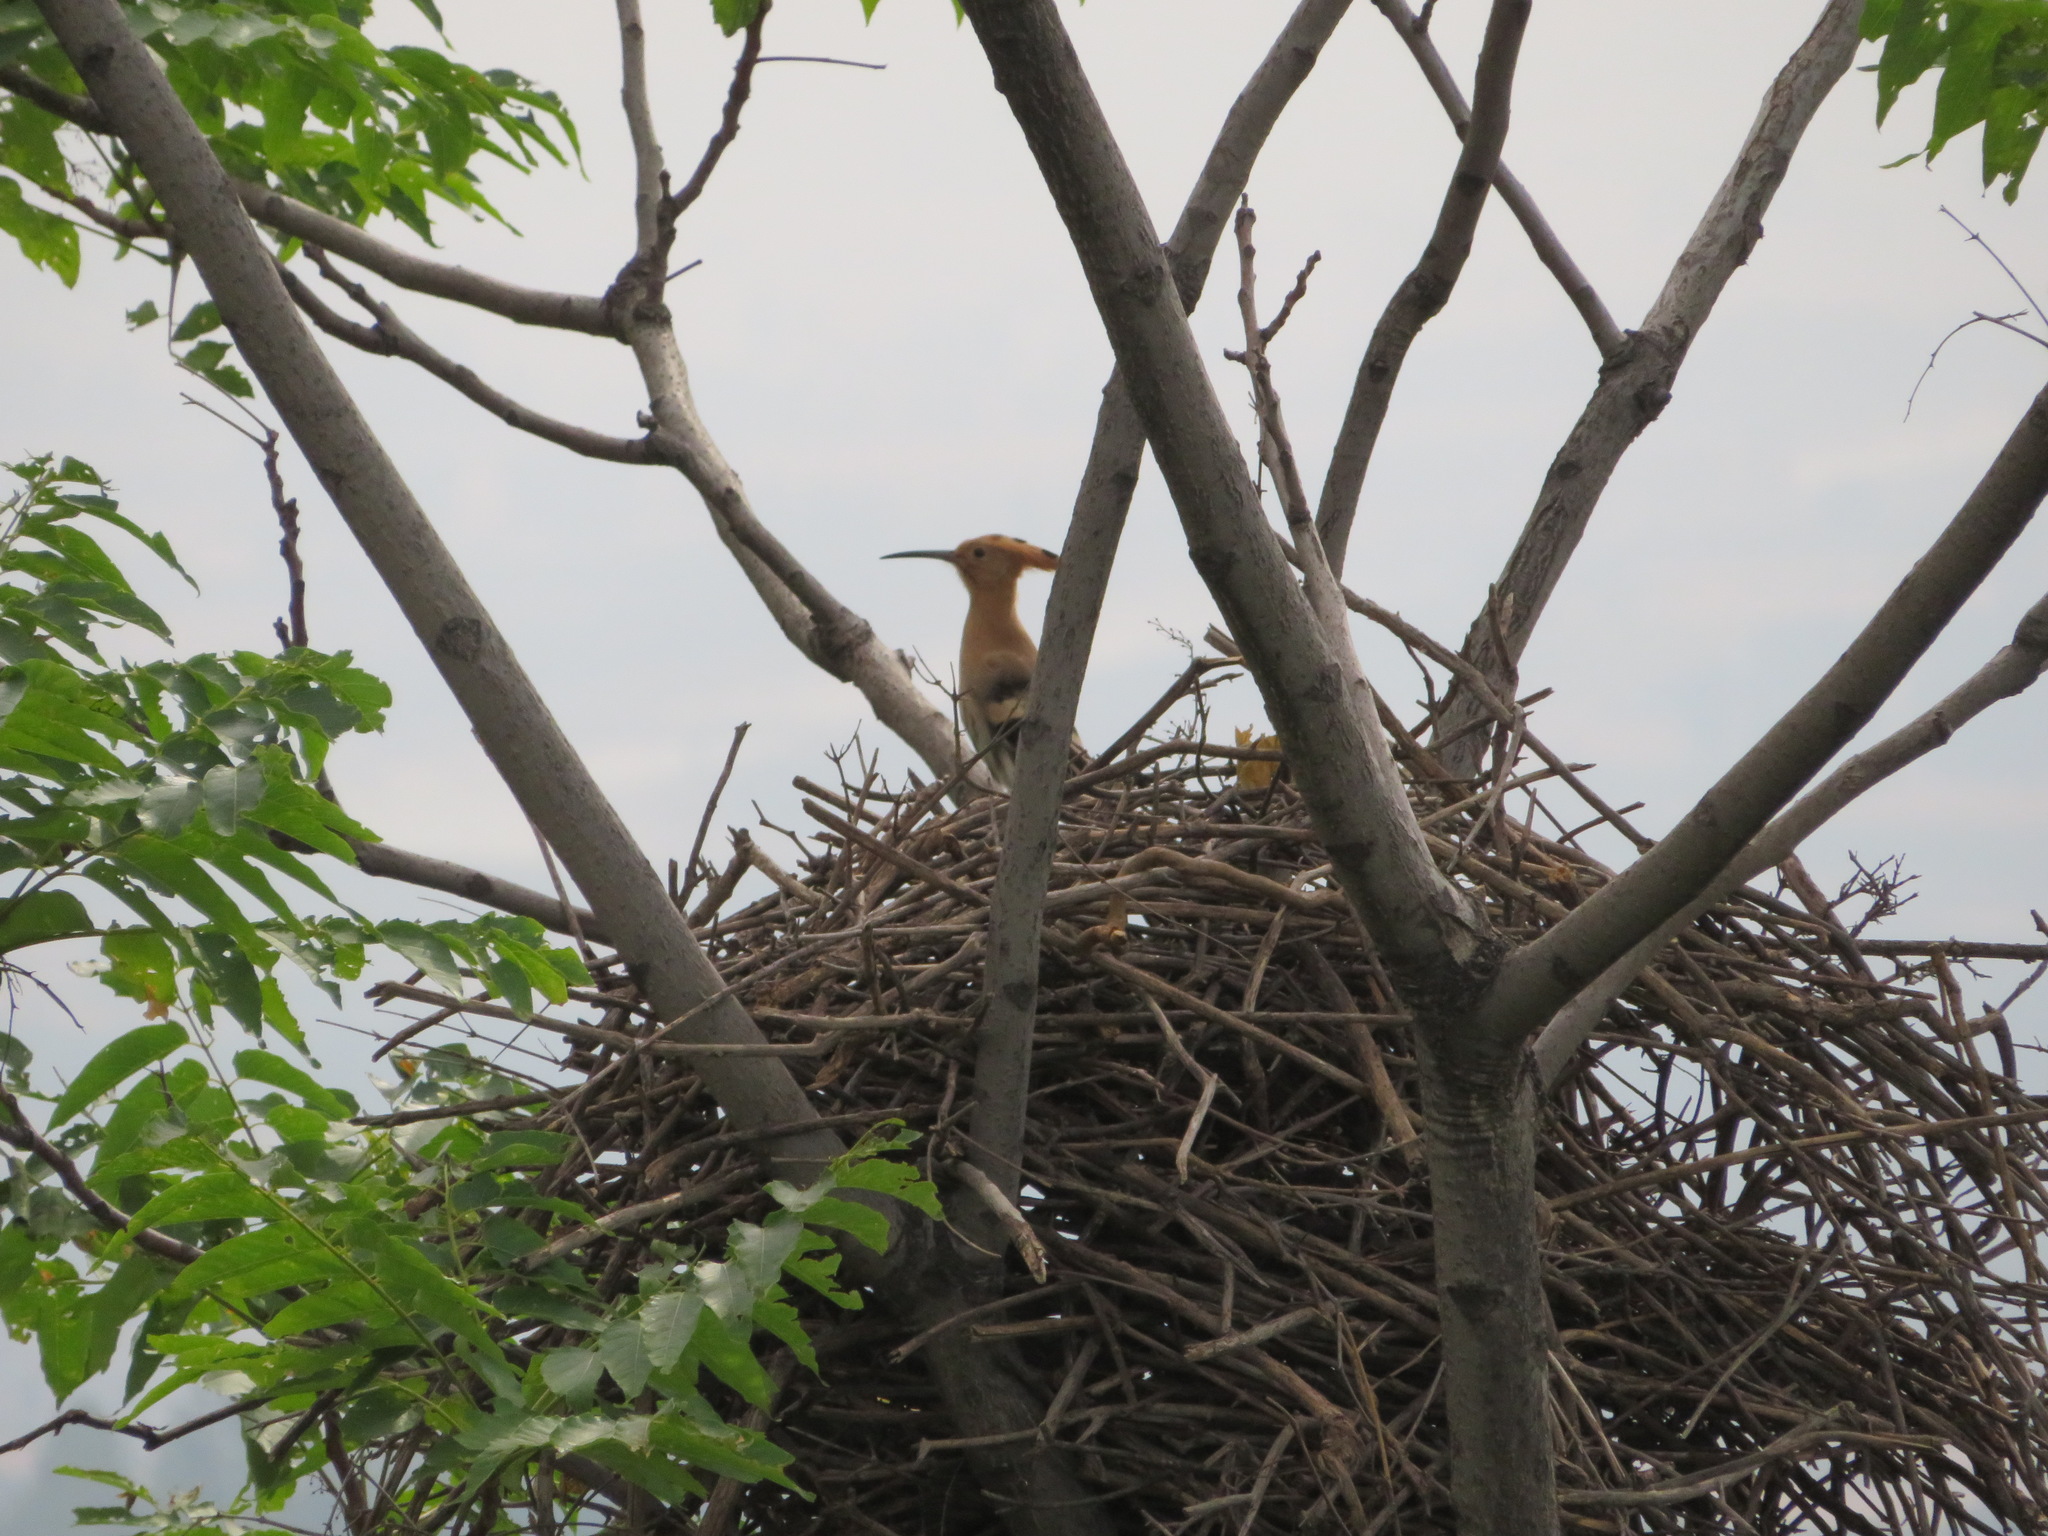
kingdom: Animalia
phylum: Chordata
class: Aves
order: Bucerotiformes
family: Upupidae
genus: Upupa
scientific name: Upupa epops
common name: Eurasian hoopoe
